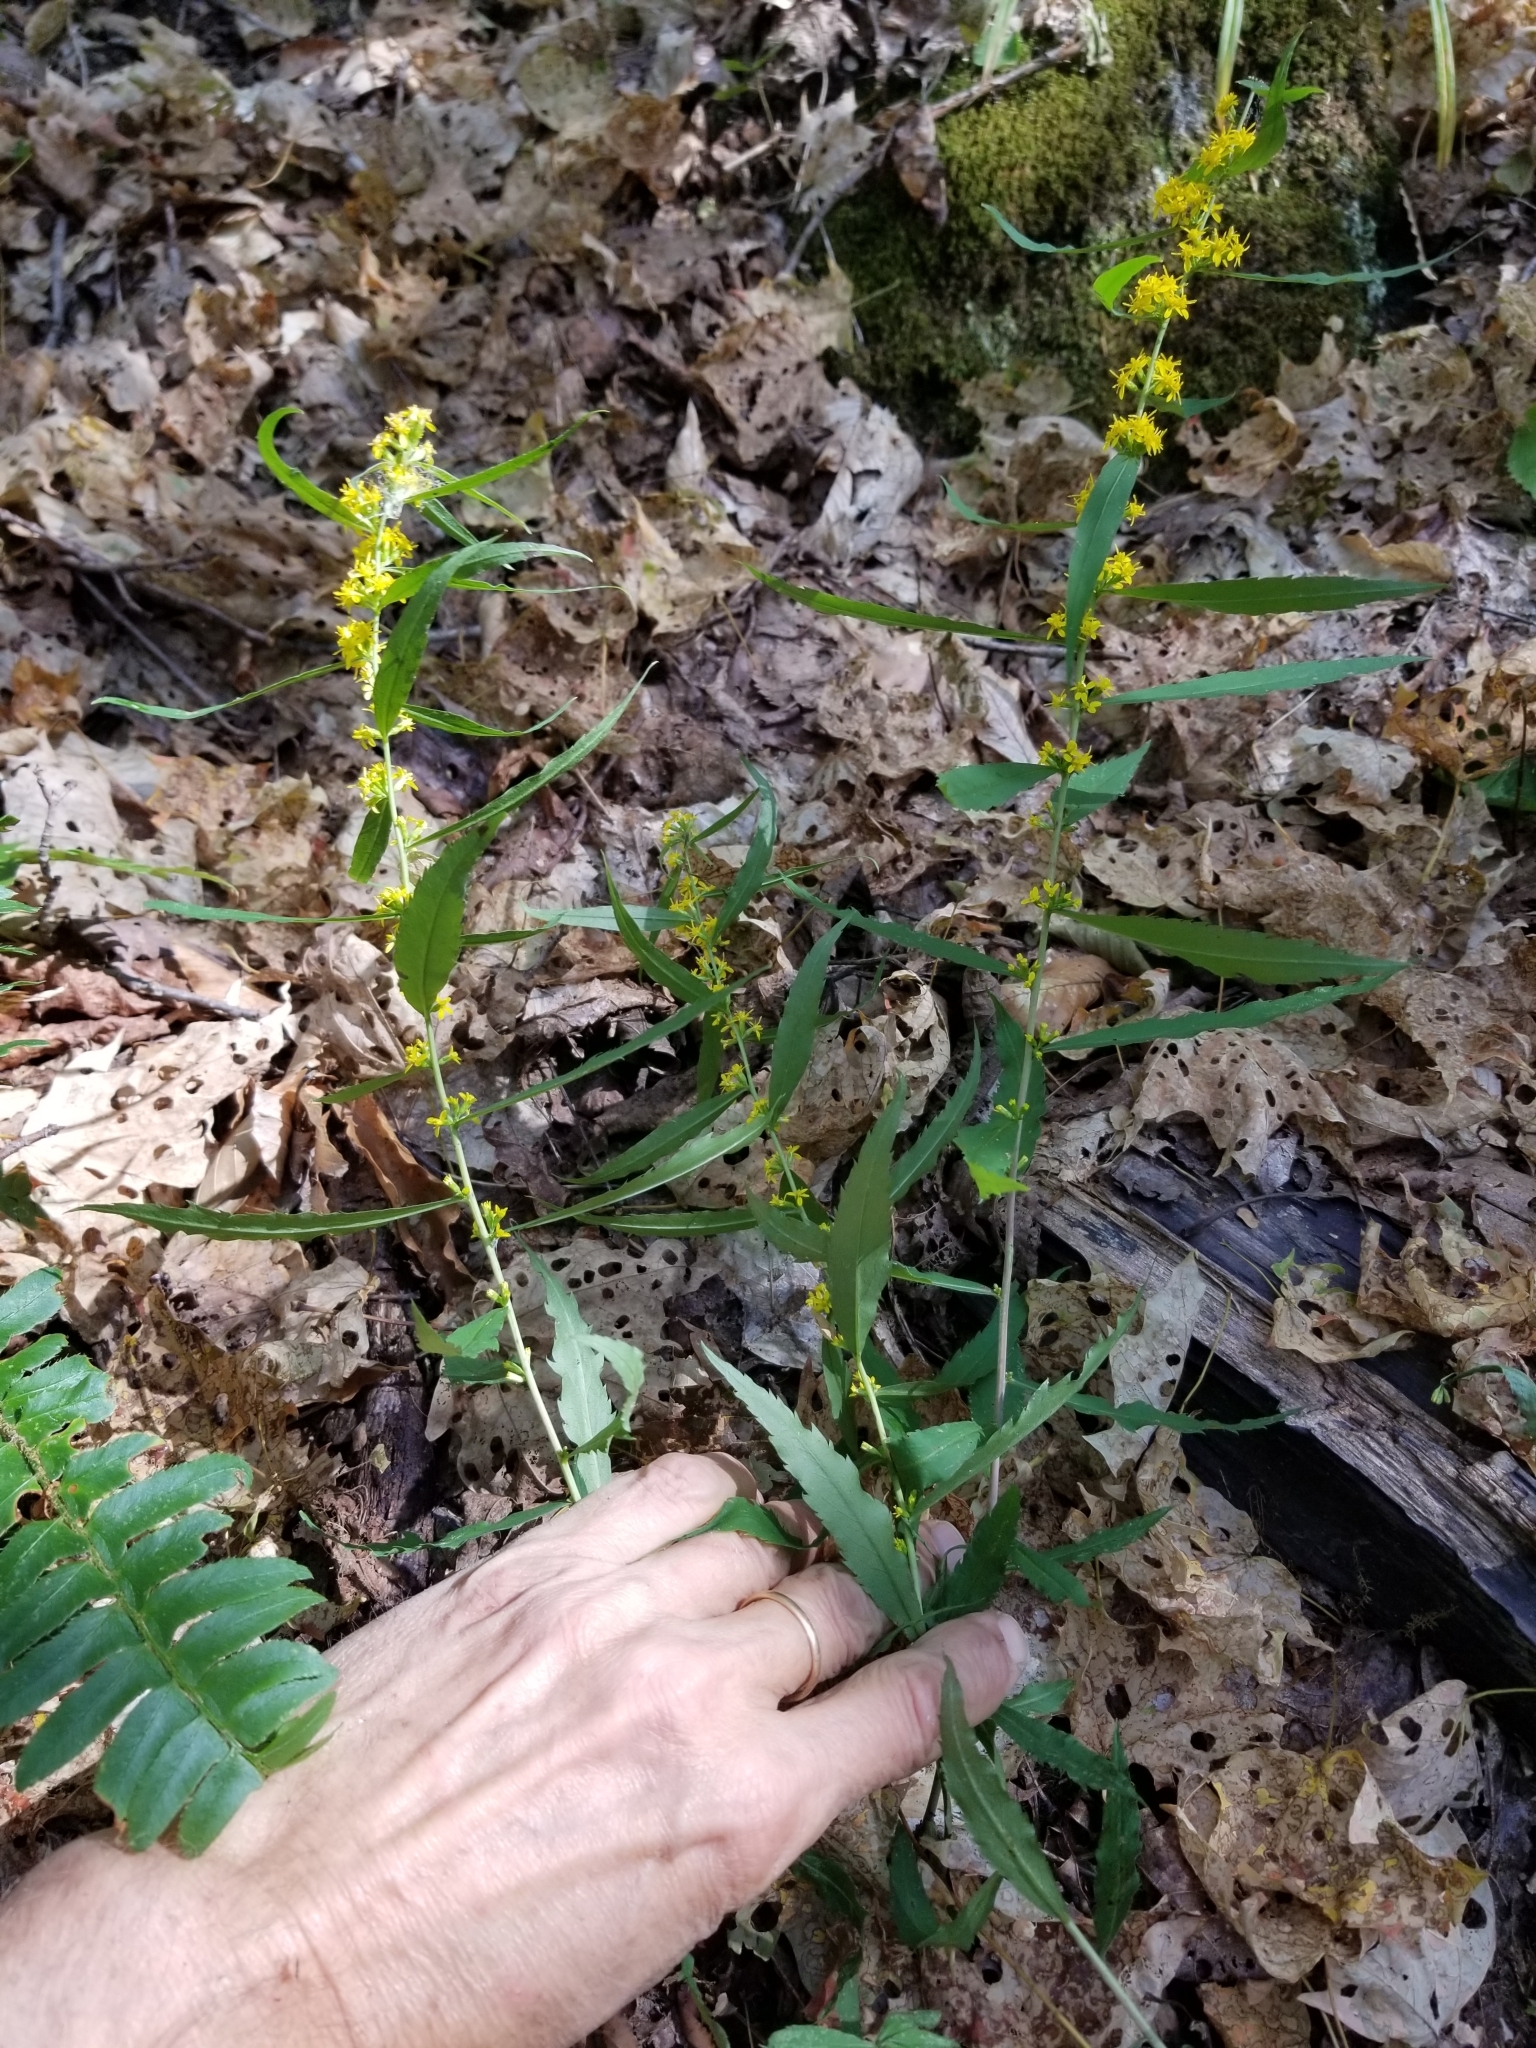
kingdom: Plantae
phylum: Tracheophyta
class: Magnoliopsida
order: Asterales
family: Asteraceae
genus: Solidago
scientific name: Solidago caesia
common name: Woodland goldenrod
